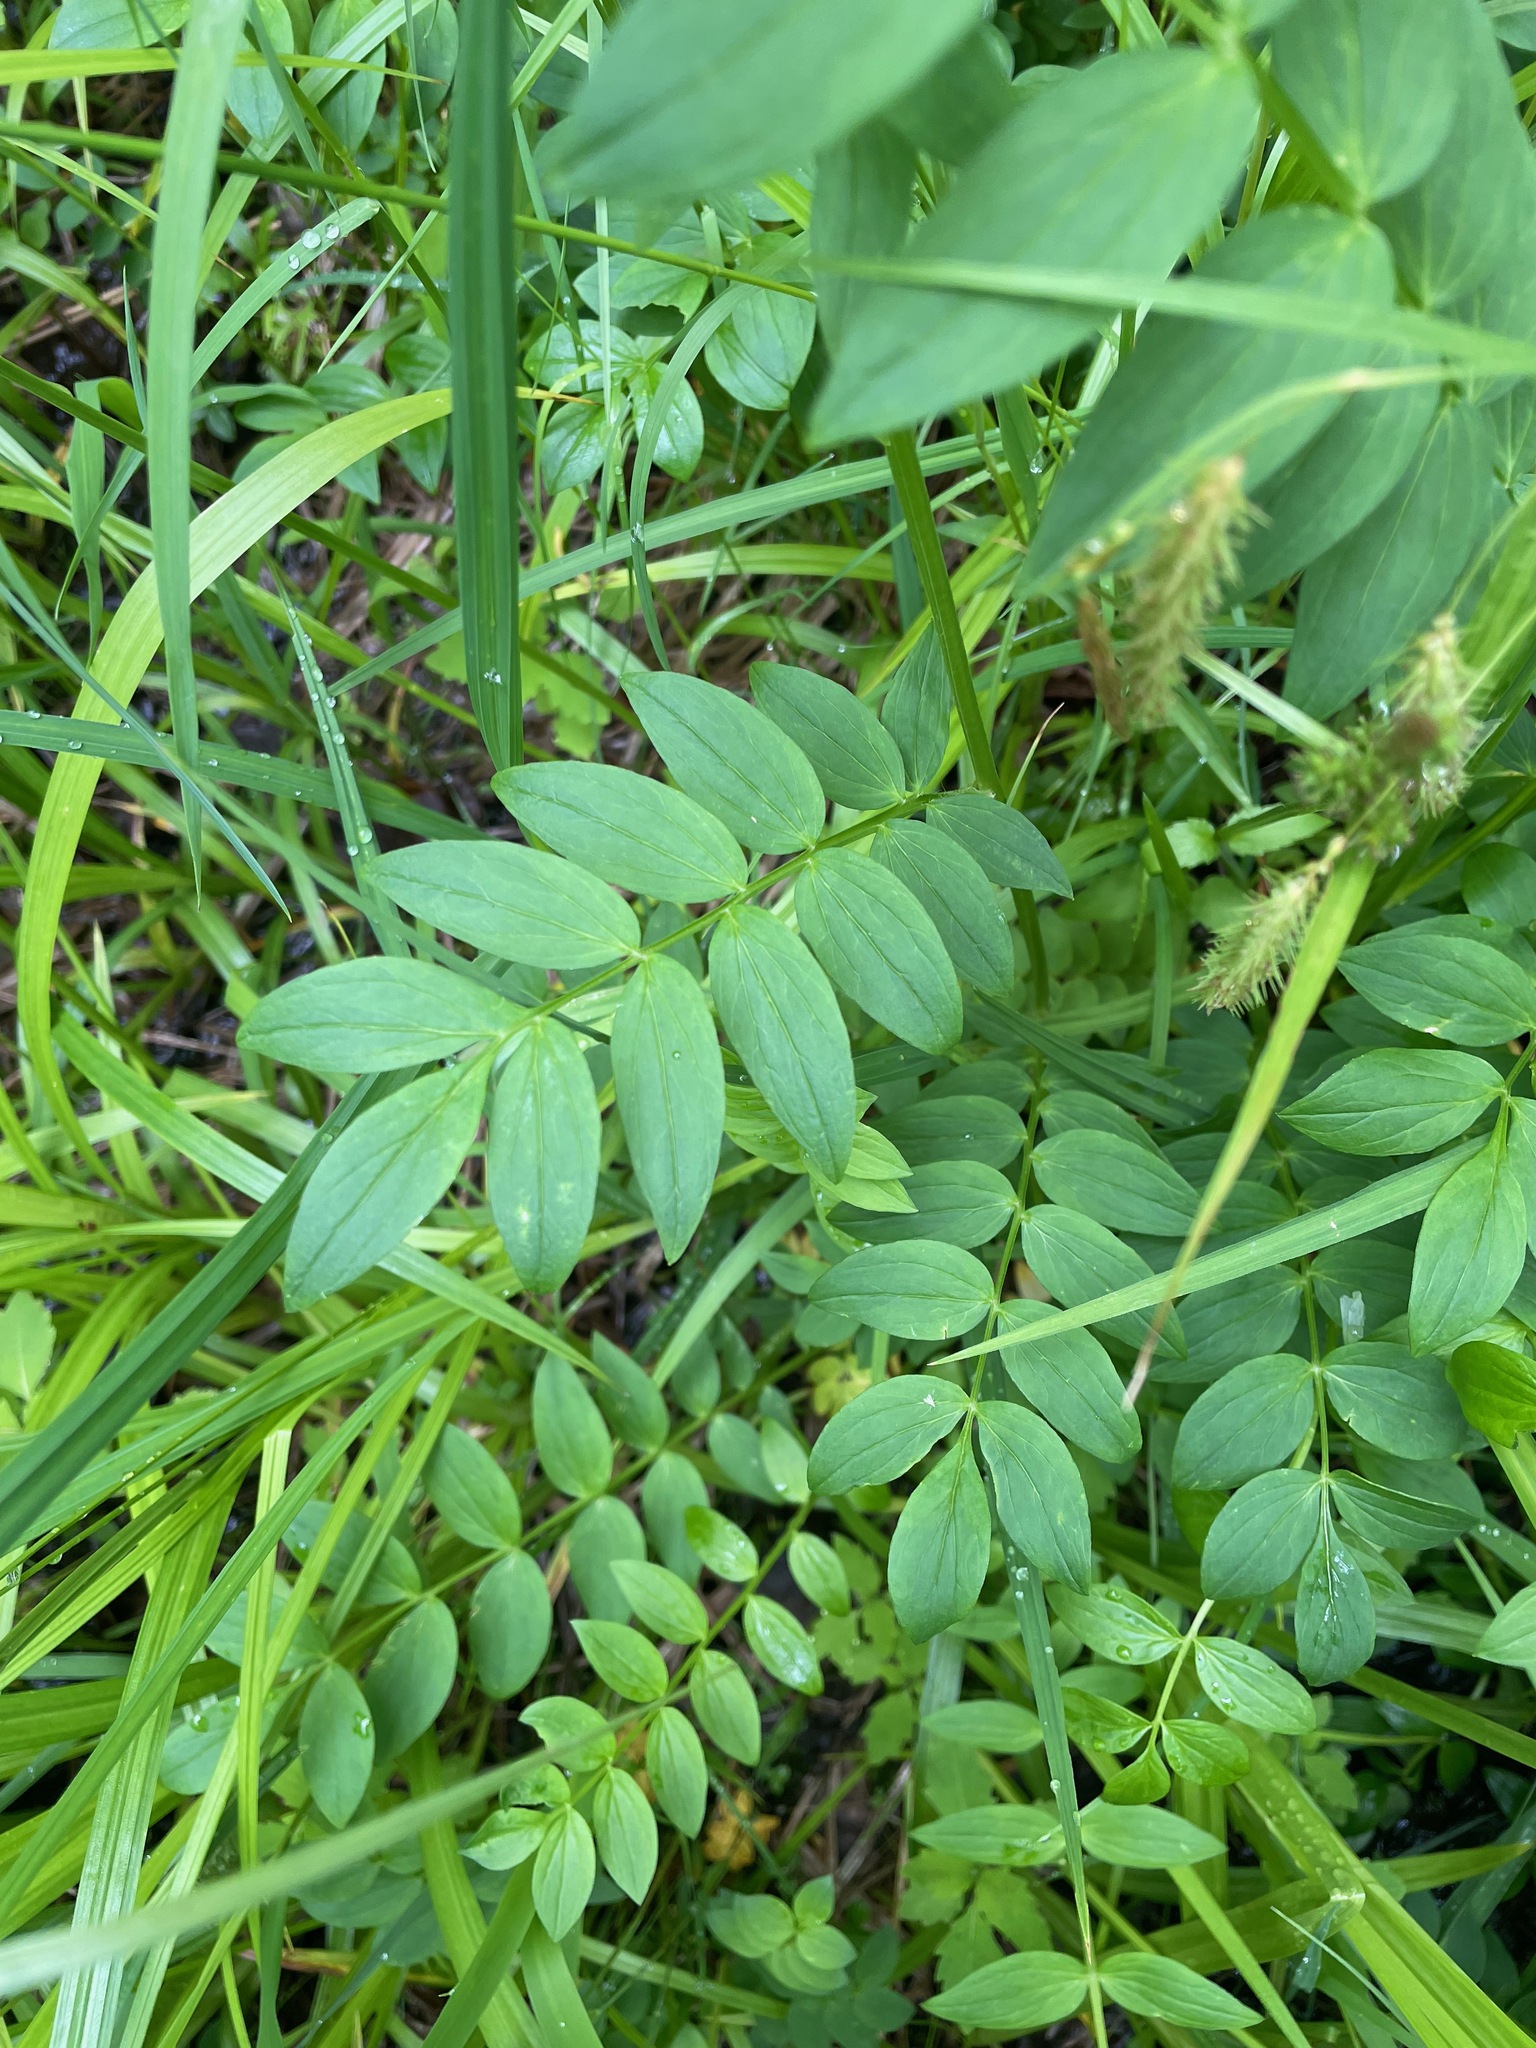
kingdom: Plantae
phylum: Tracheophyta
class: Magnoliopsida
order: Ericales
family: Polemoniaceae
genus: Polemonium
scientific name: Polemonium vanbruntiae
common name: Bog jacob's-ladder
